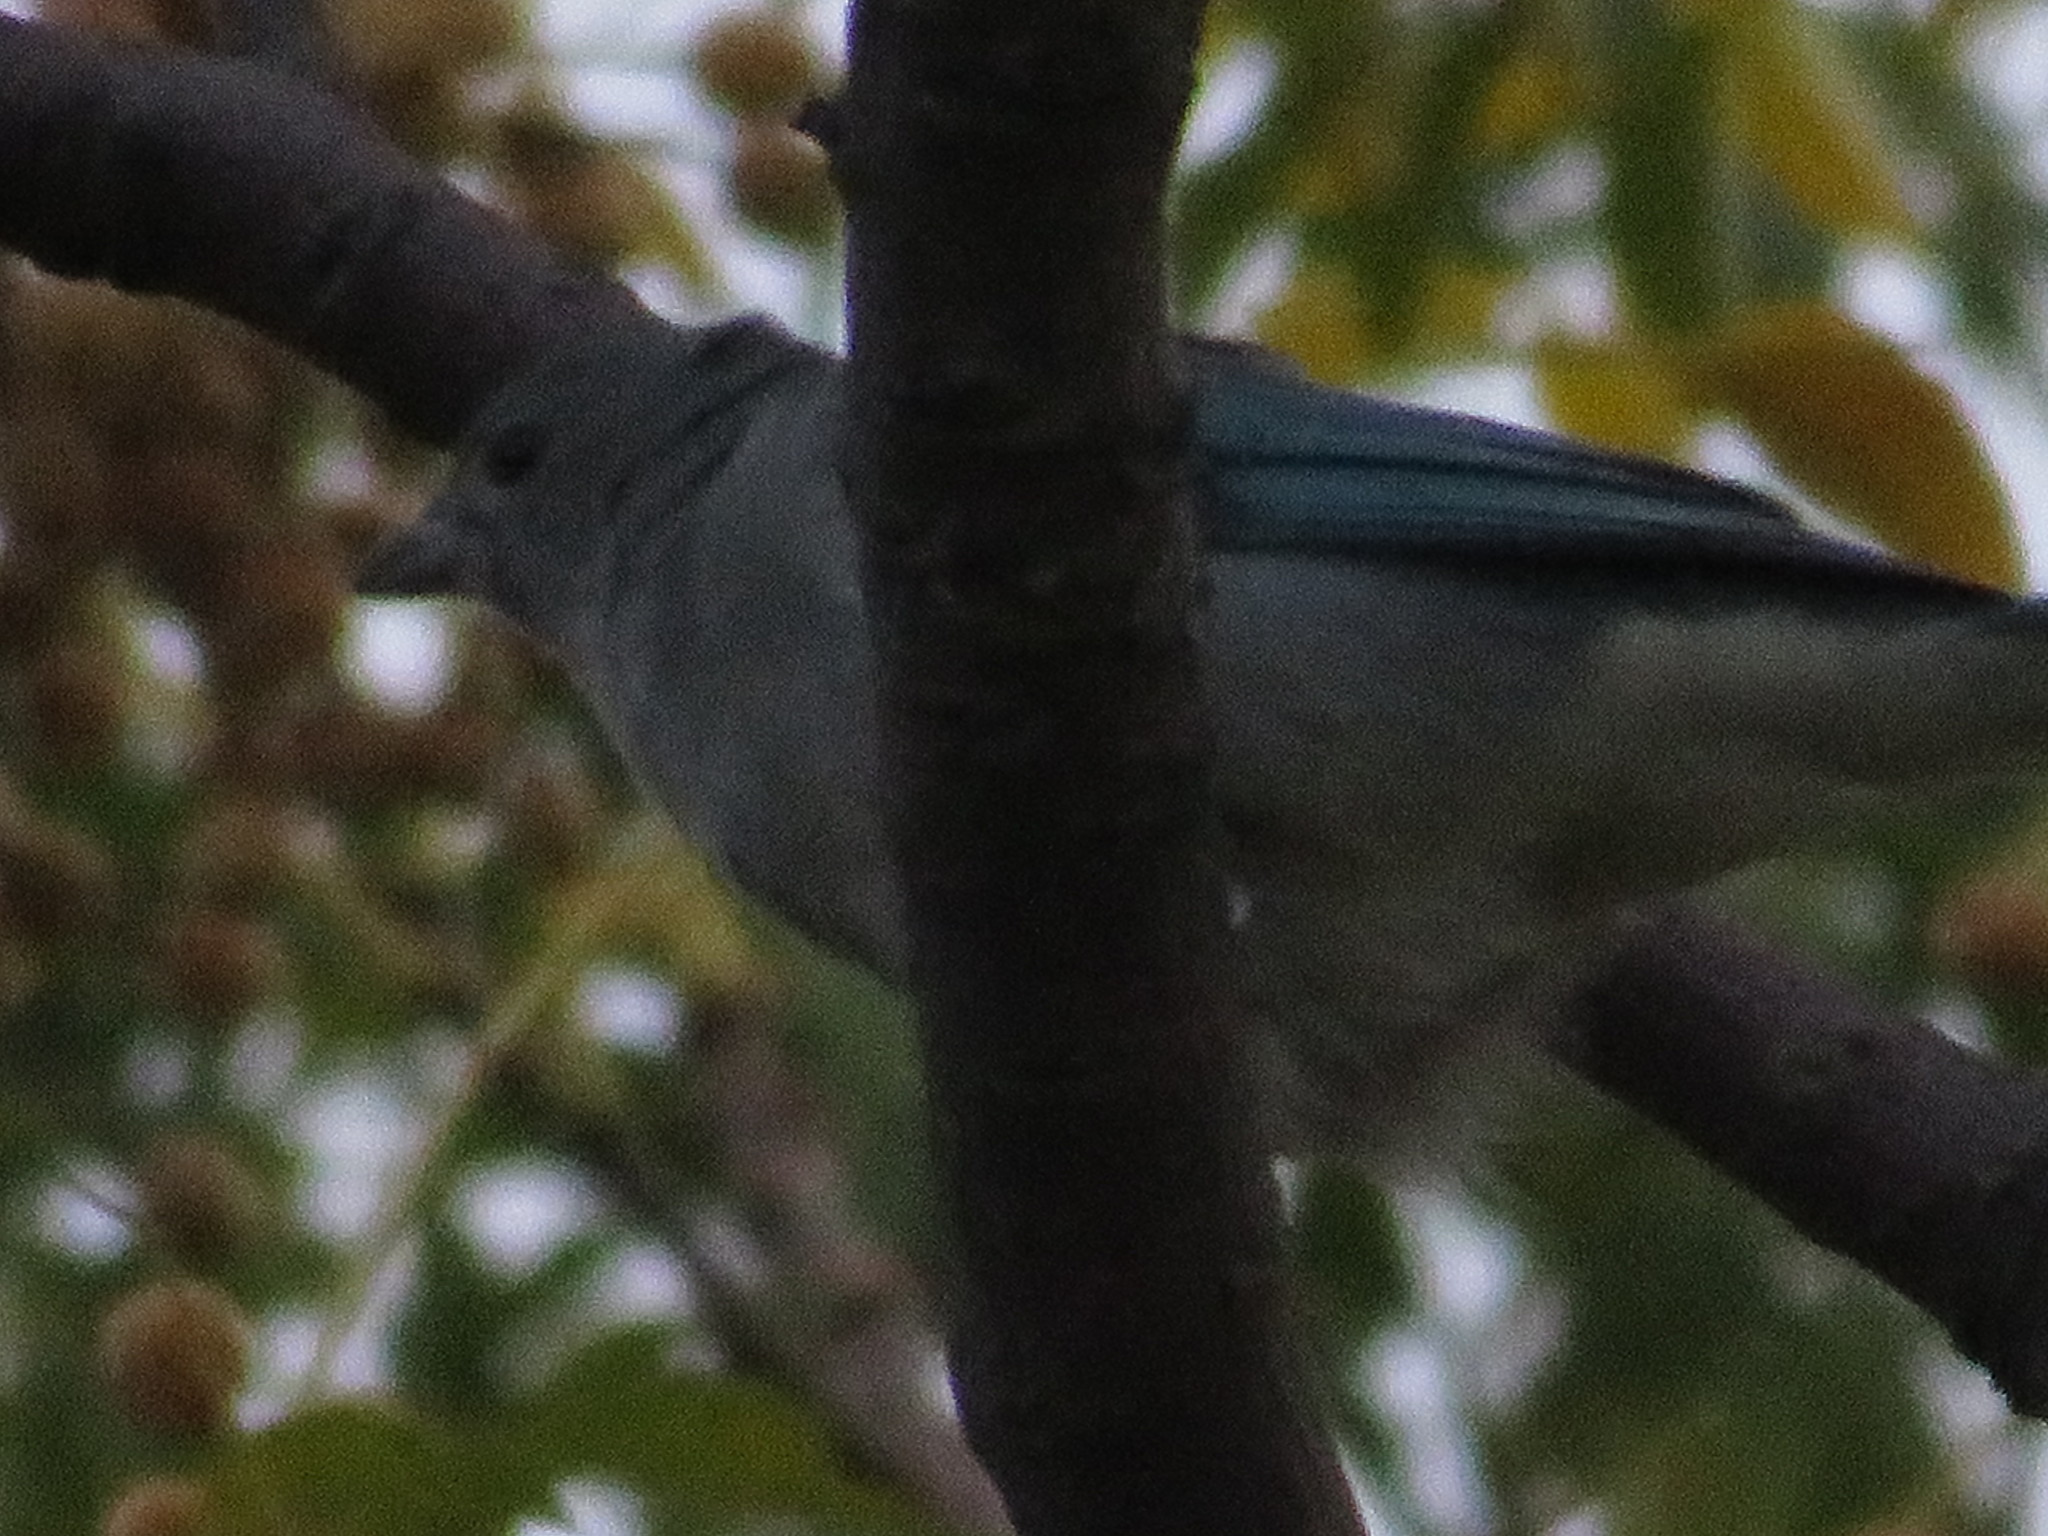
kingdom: Animalia
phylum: Chordata
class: Aves
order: Passeriformes
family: Thraupidae
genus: Thraupis
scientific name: Thraupis sayaca
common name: Sayaca tanager
